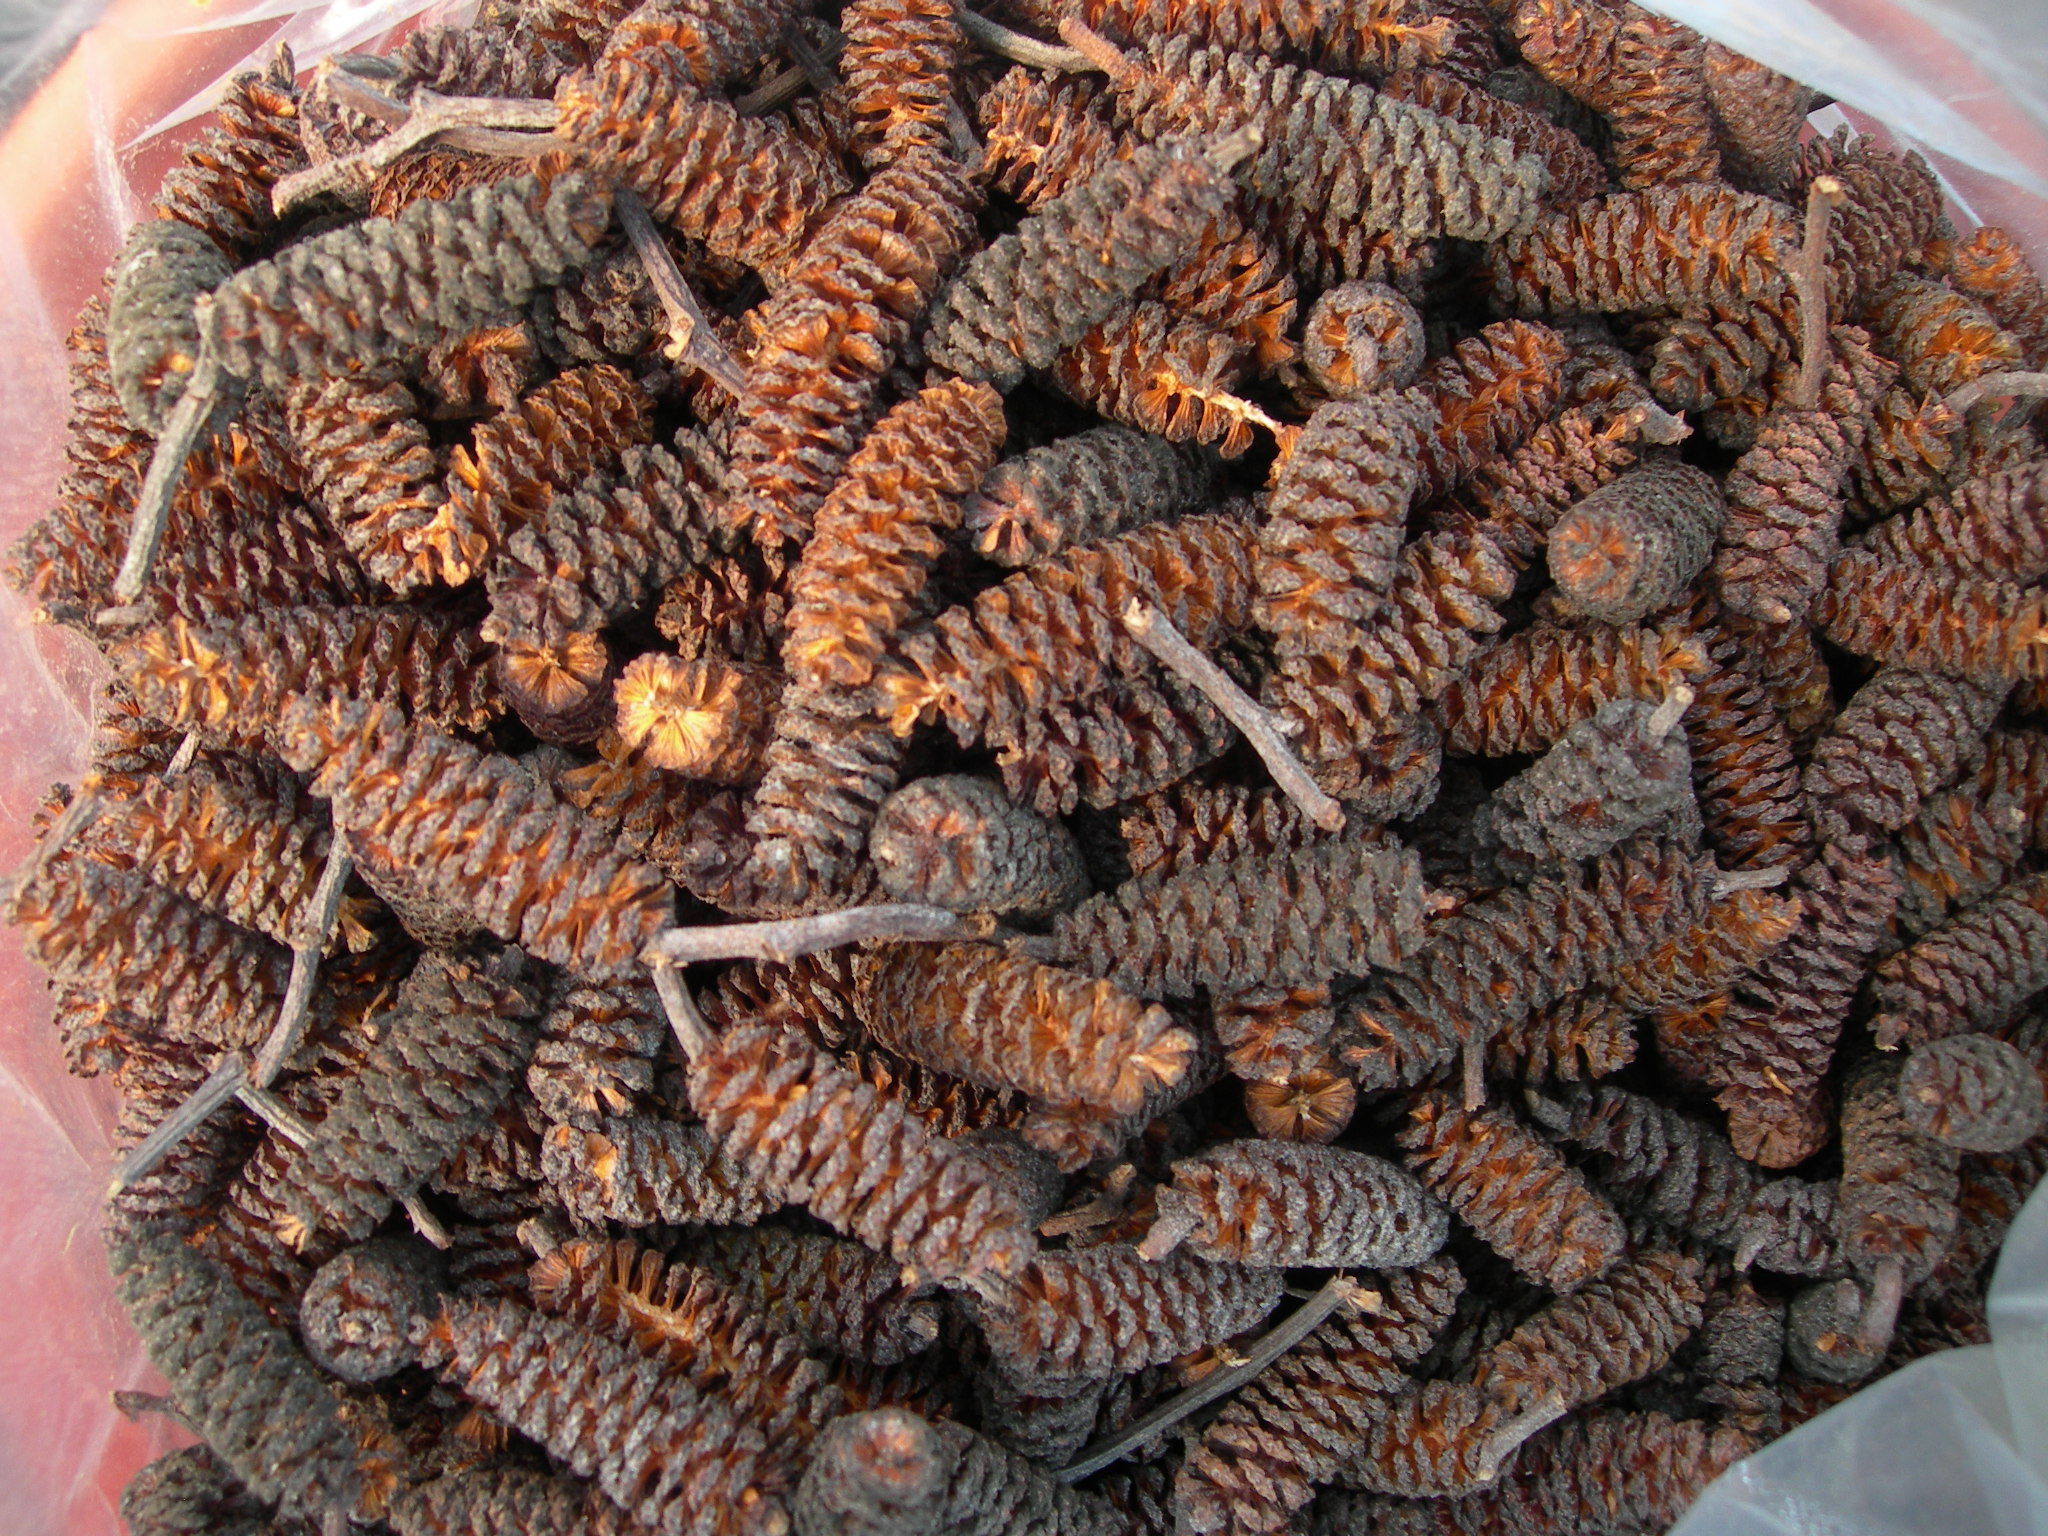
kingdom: Plantae
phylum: Tracheophyta
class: Magnoliopsida
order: Fagales
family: Betulaceae
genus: Alnus
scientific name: Alnus acuminata
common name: Alder
